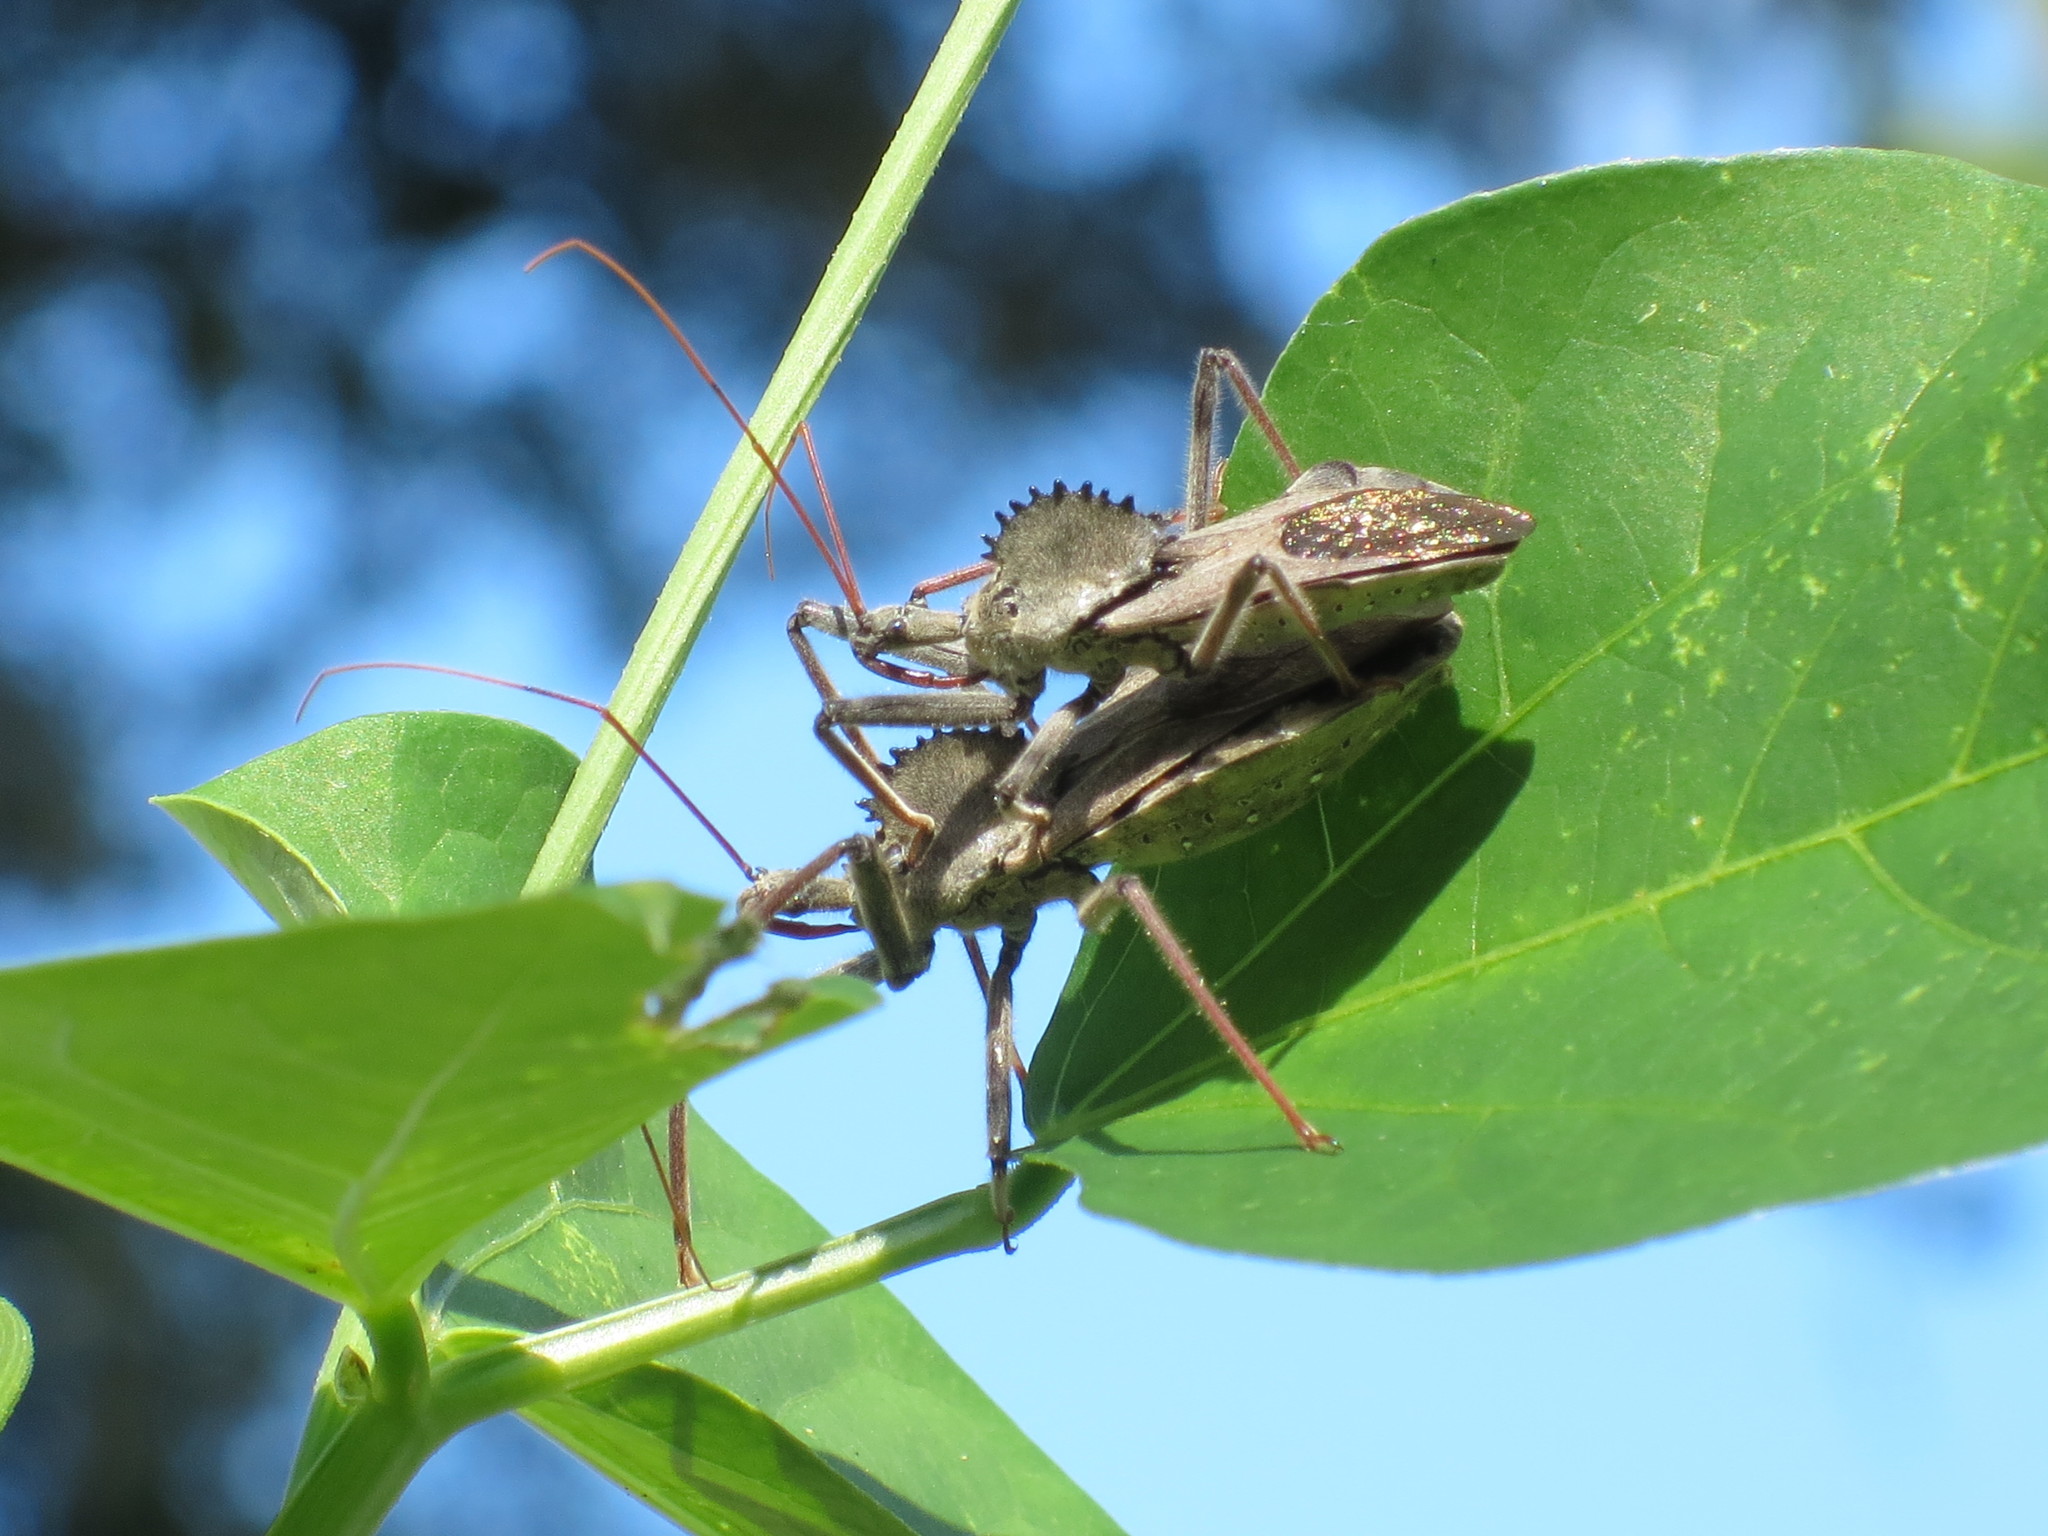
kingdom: Animalia
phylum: Arthropoda
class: Insecta
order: Hemiptera
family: Reduviidae
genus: Arilus
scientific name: Arilus cristatus
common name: North american wheel bug
